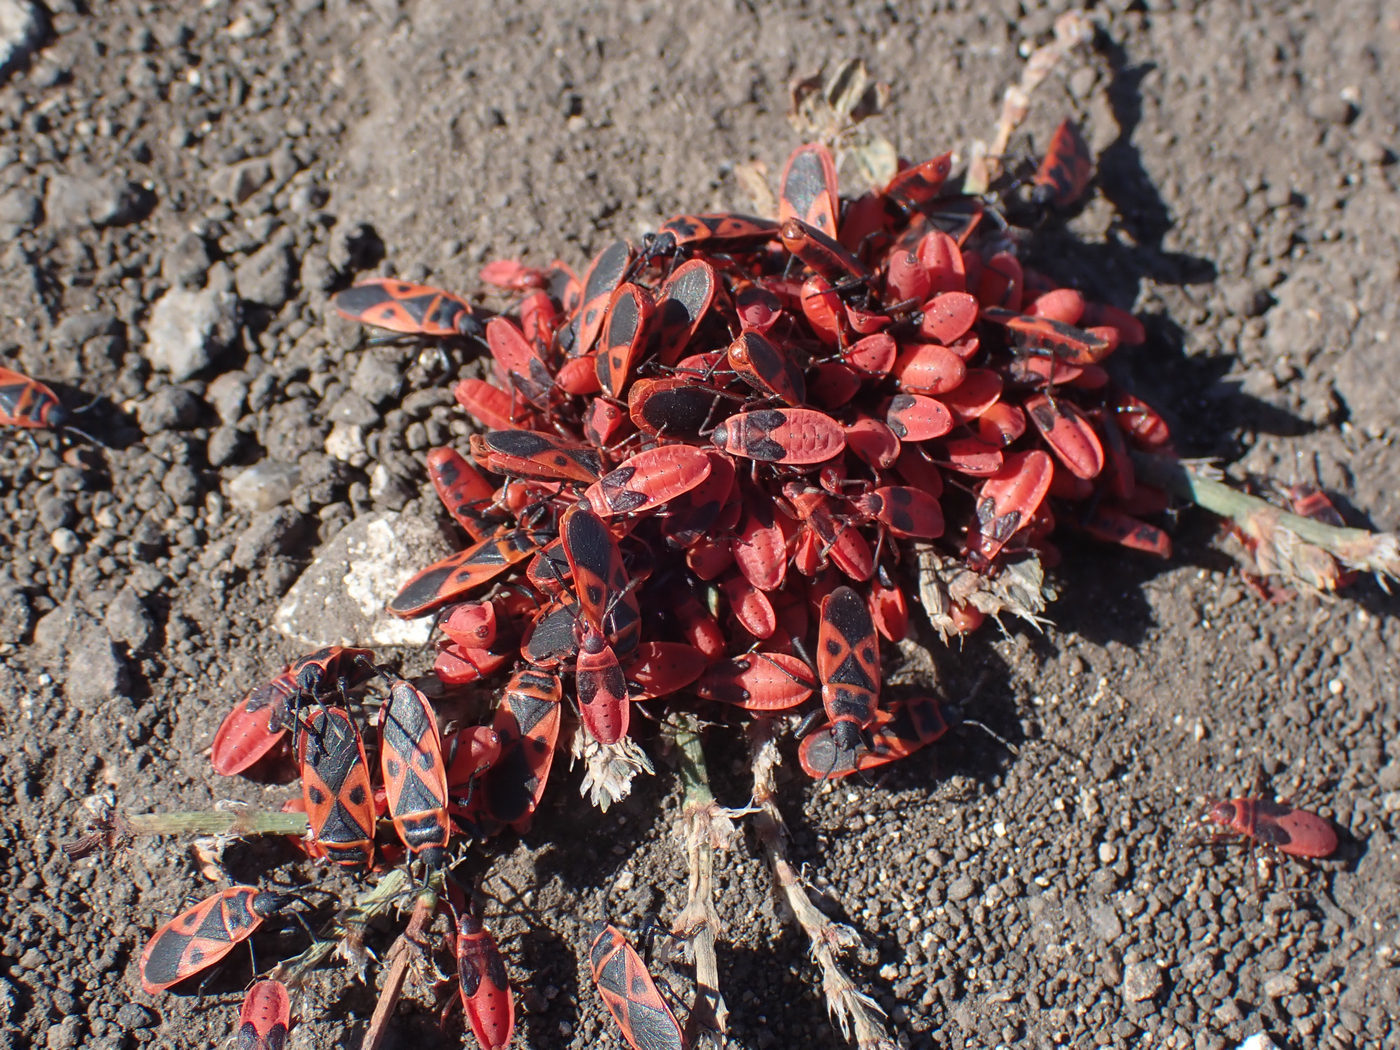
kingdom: Animalia
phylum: Arthropoda
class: Insecta
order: Hemiptera
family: Pyrrhocoridae
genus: Scantius
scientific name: Scantius aegyptius
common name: Red bug
